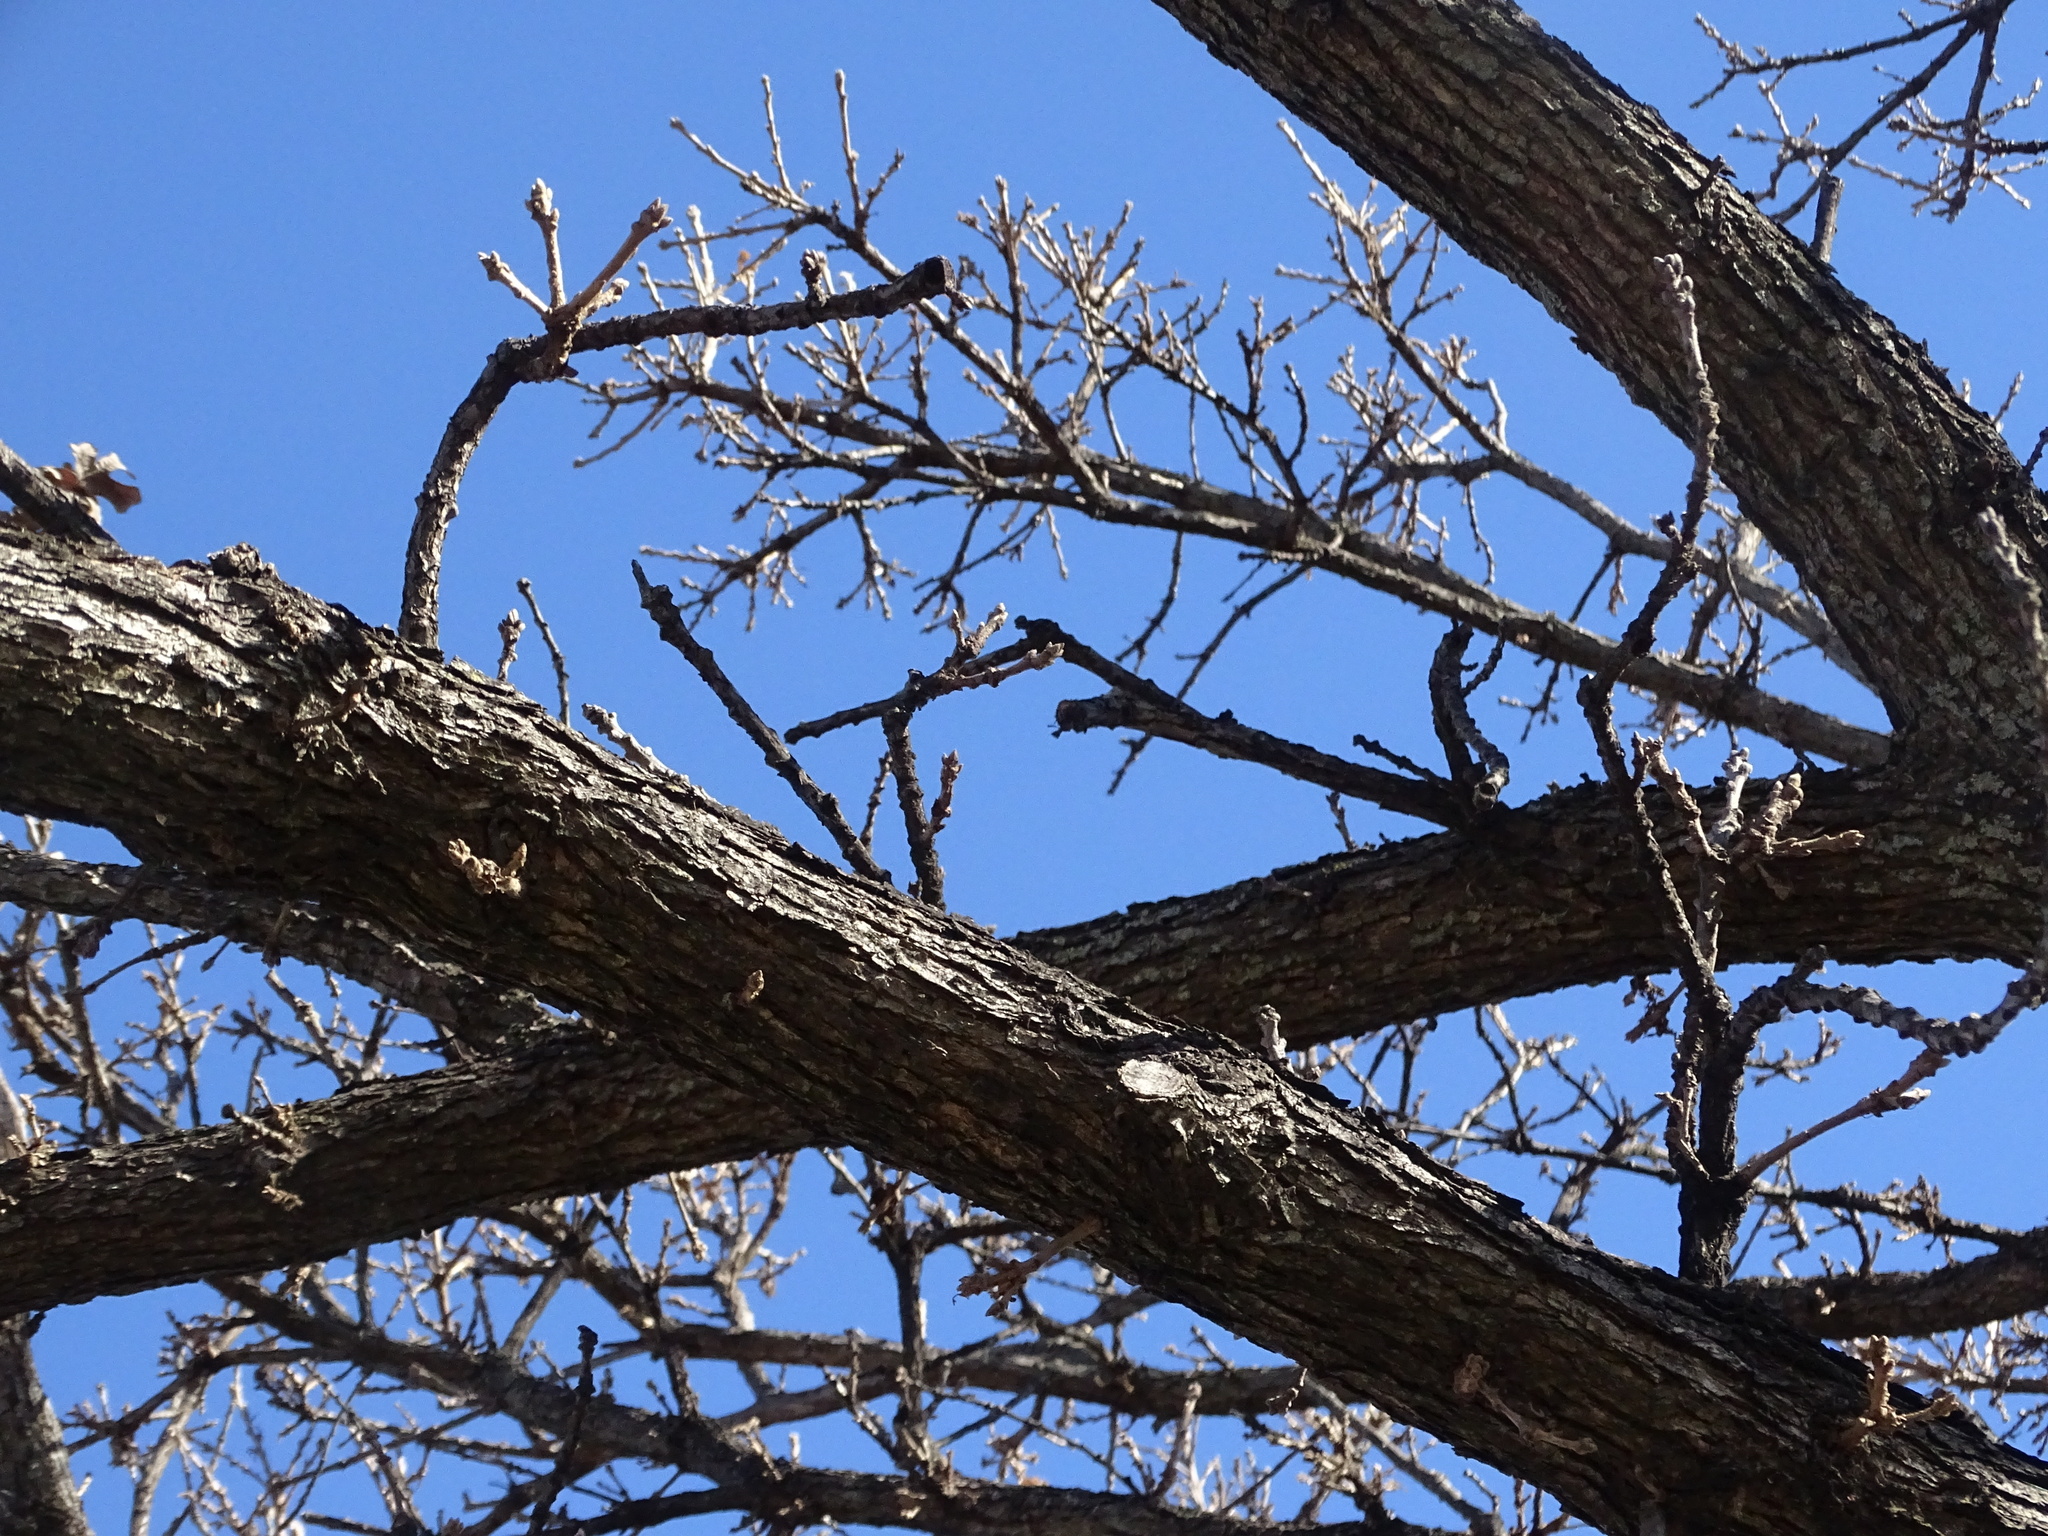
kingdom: Plantae
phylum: Tracheophyta
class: Magnoliopsida
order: Fagales
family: Fagaceae
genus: Quercus
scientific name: Quercus macrocarpa
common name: Bur oak
